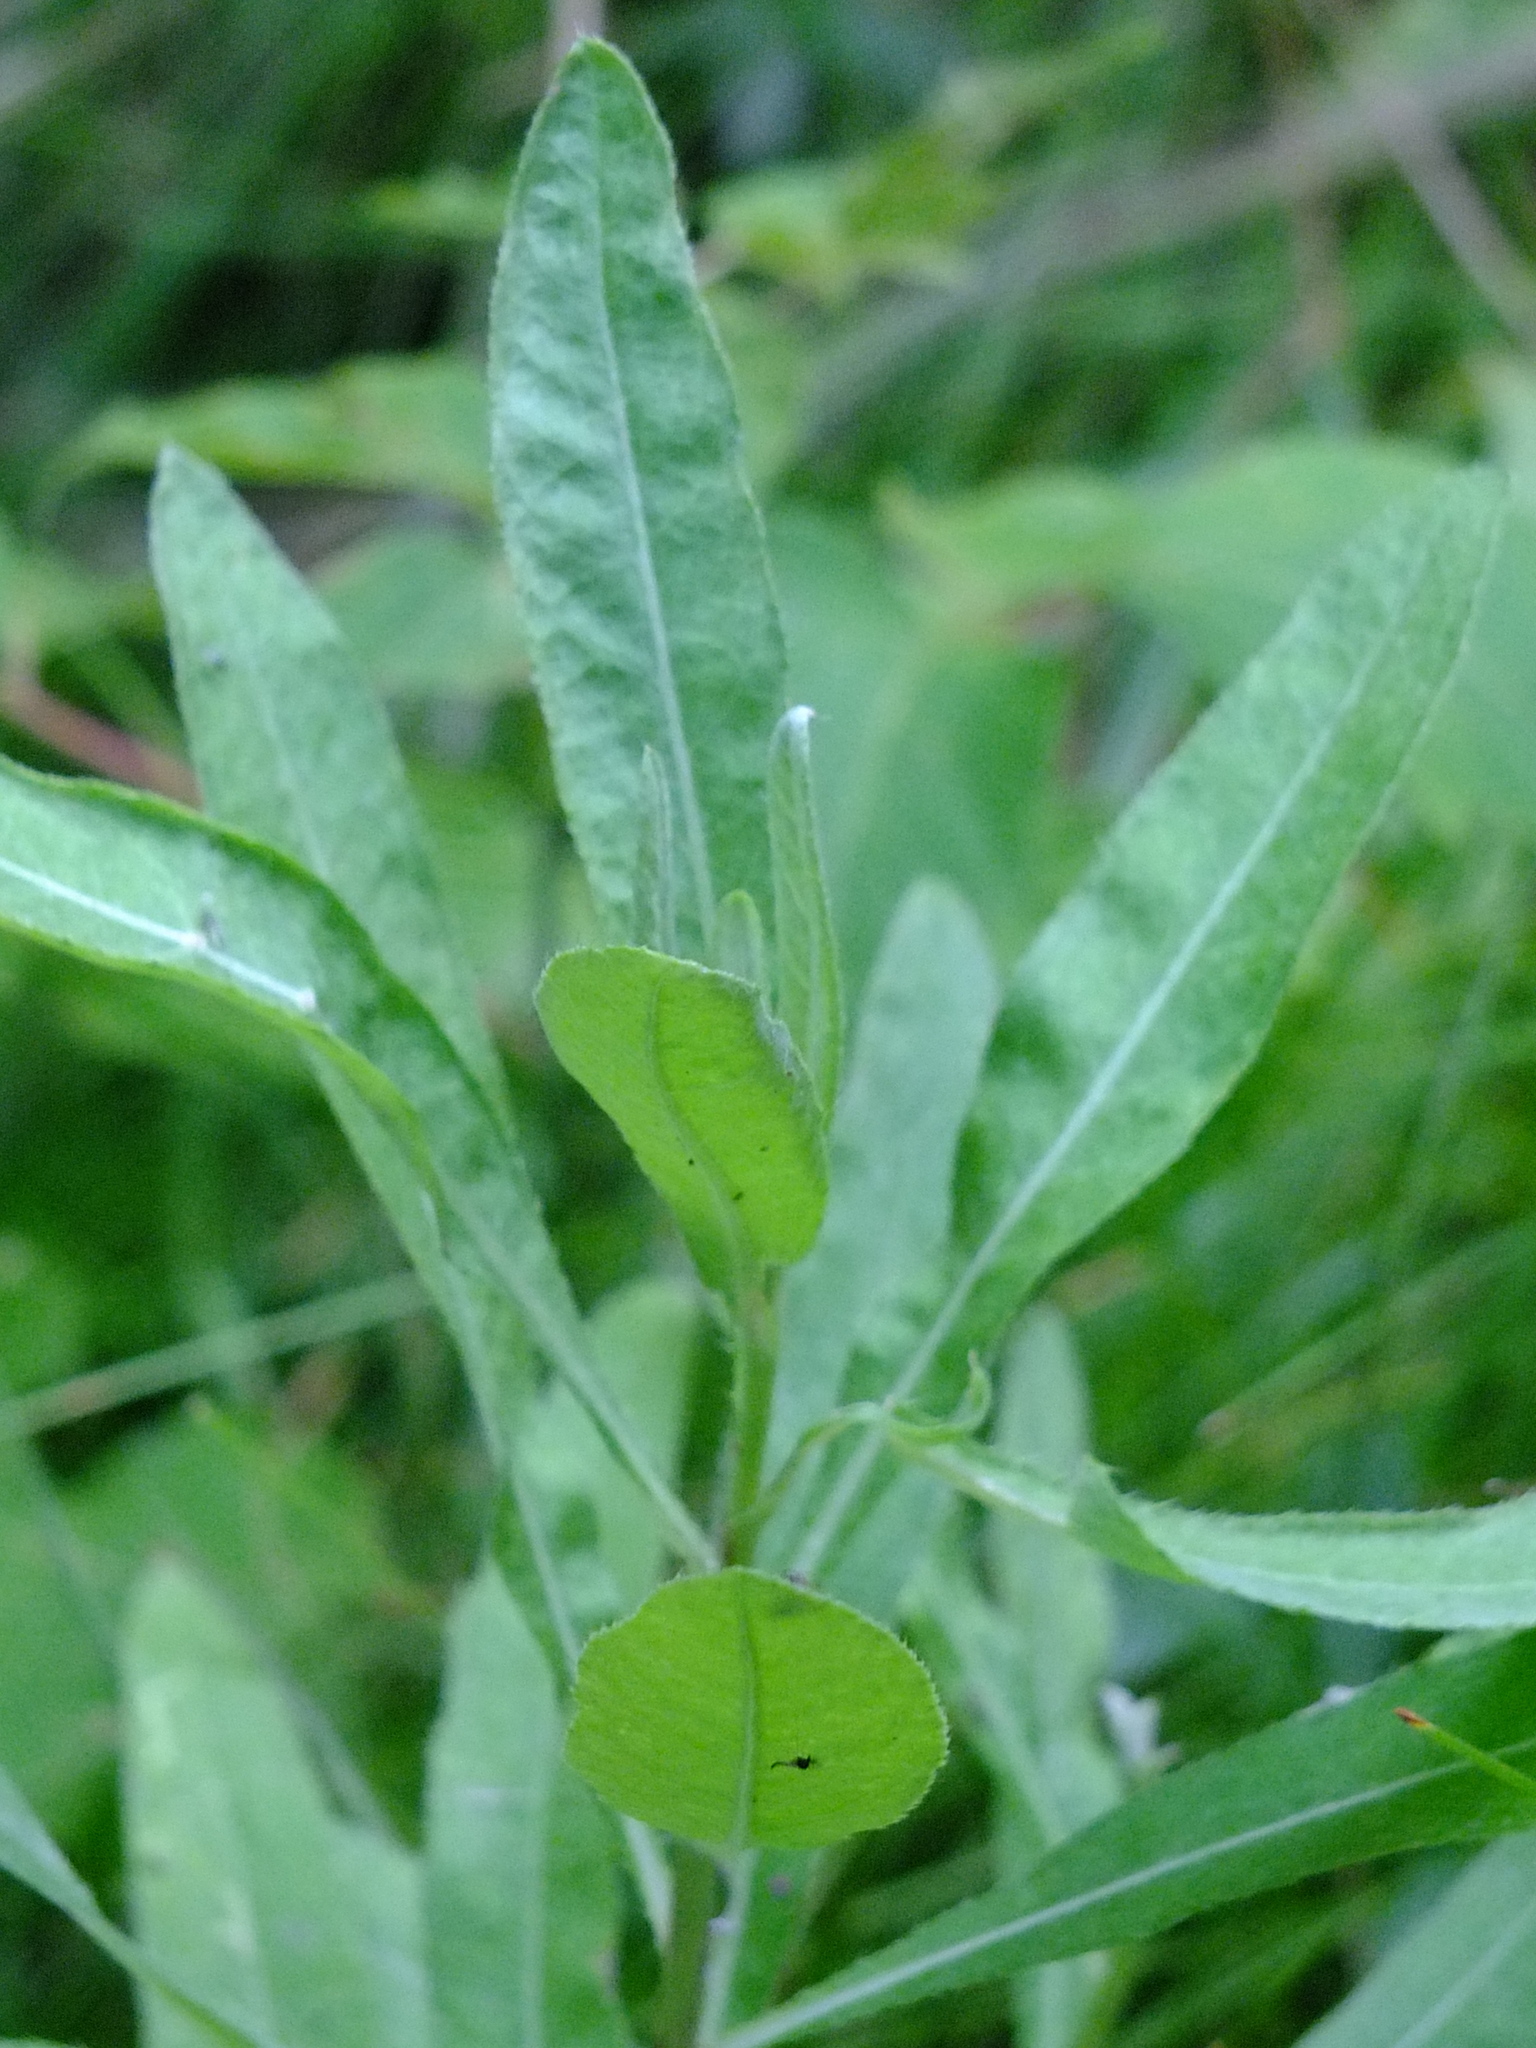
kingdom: Plantae
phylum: Tracheophyta
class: Magnoliopsida
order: Asterales
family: Asteraceae
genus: Cirsium
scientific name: Cirsium arvense
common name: Creeping thistle
